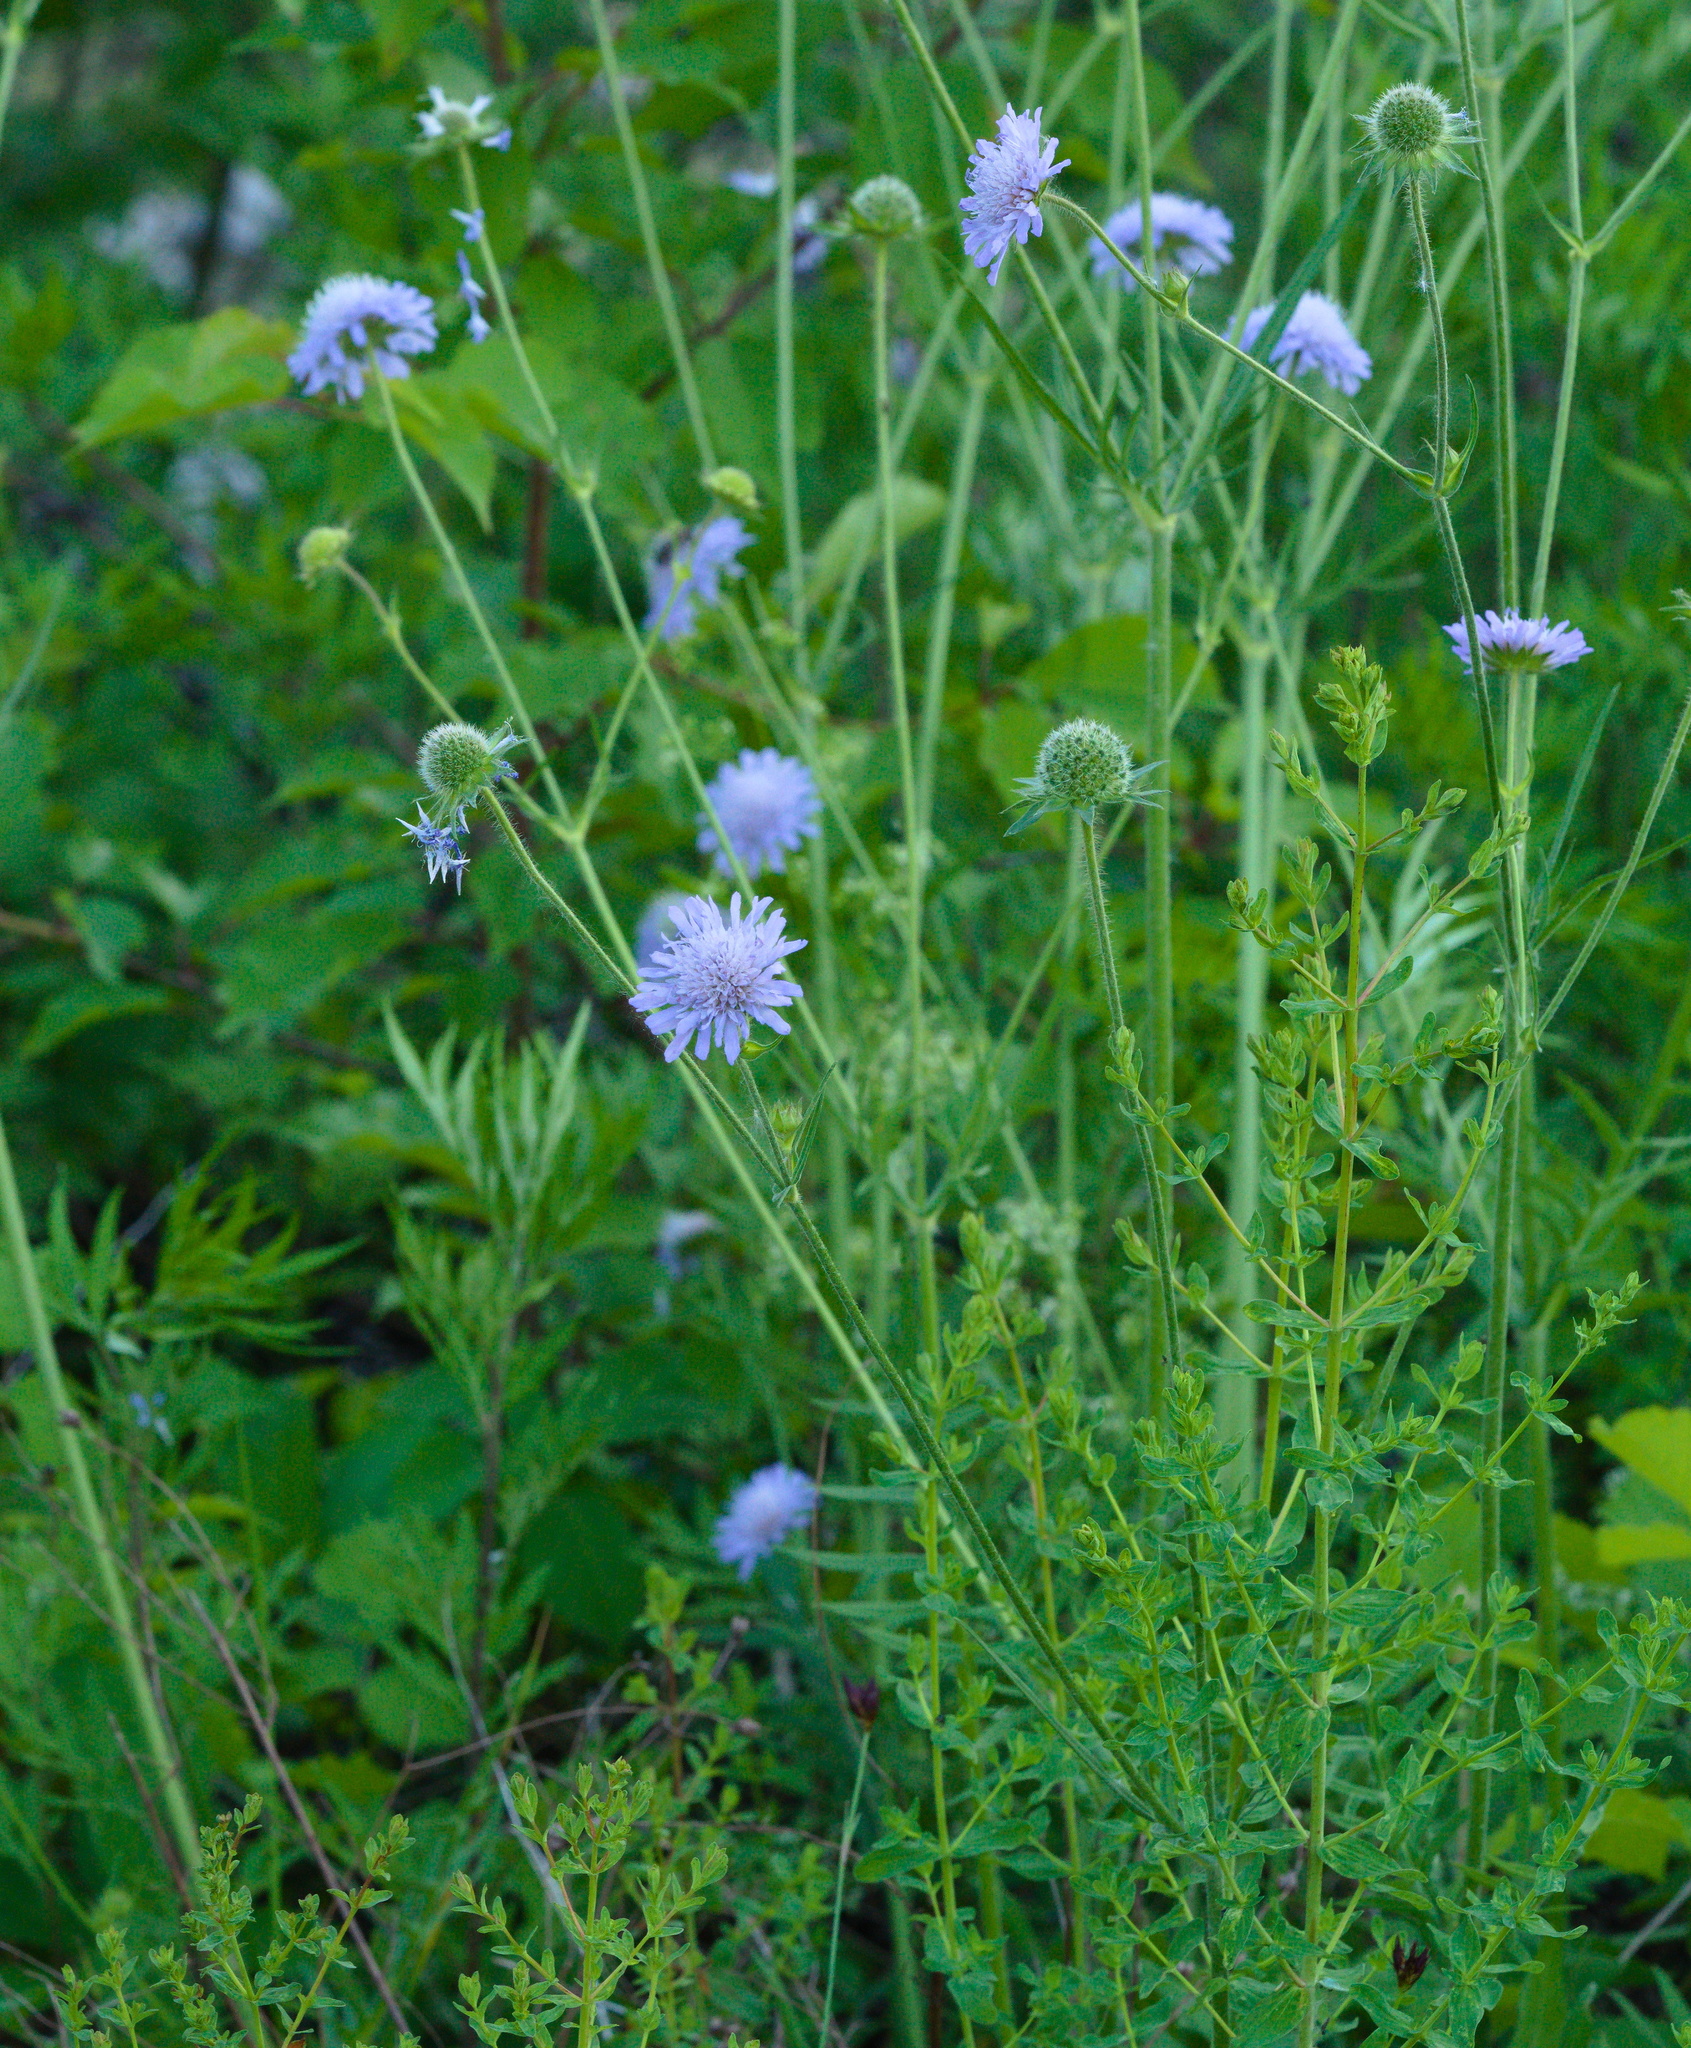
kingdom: Plantae
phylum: Tracheophyta
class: Magnoliopsida
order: Dipsacales
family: Caprifoliaceae
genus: Knautia
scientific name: Knautia arvensis
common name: Field scabiosa
